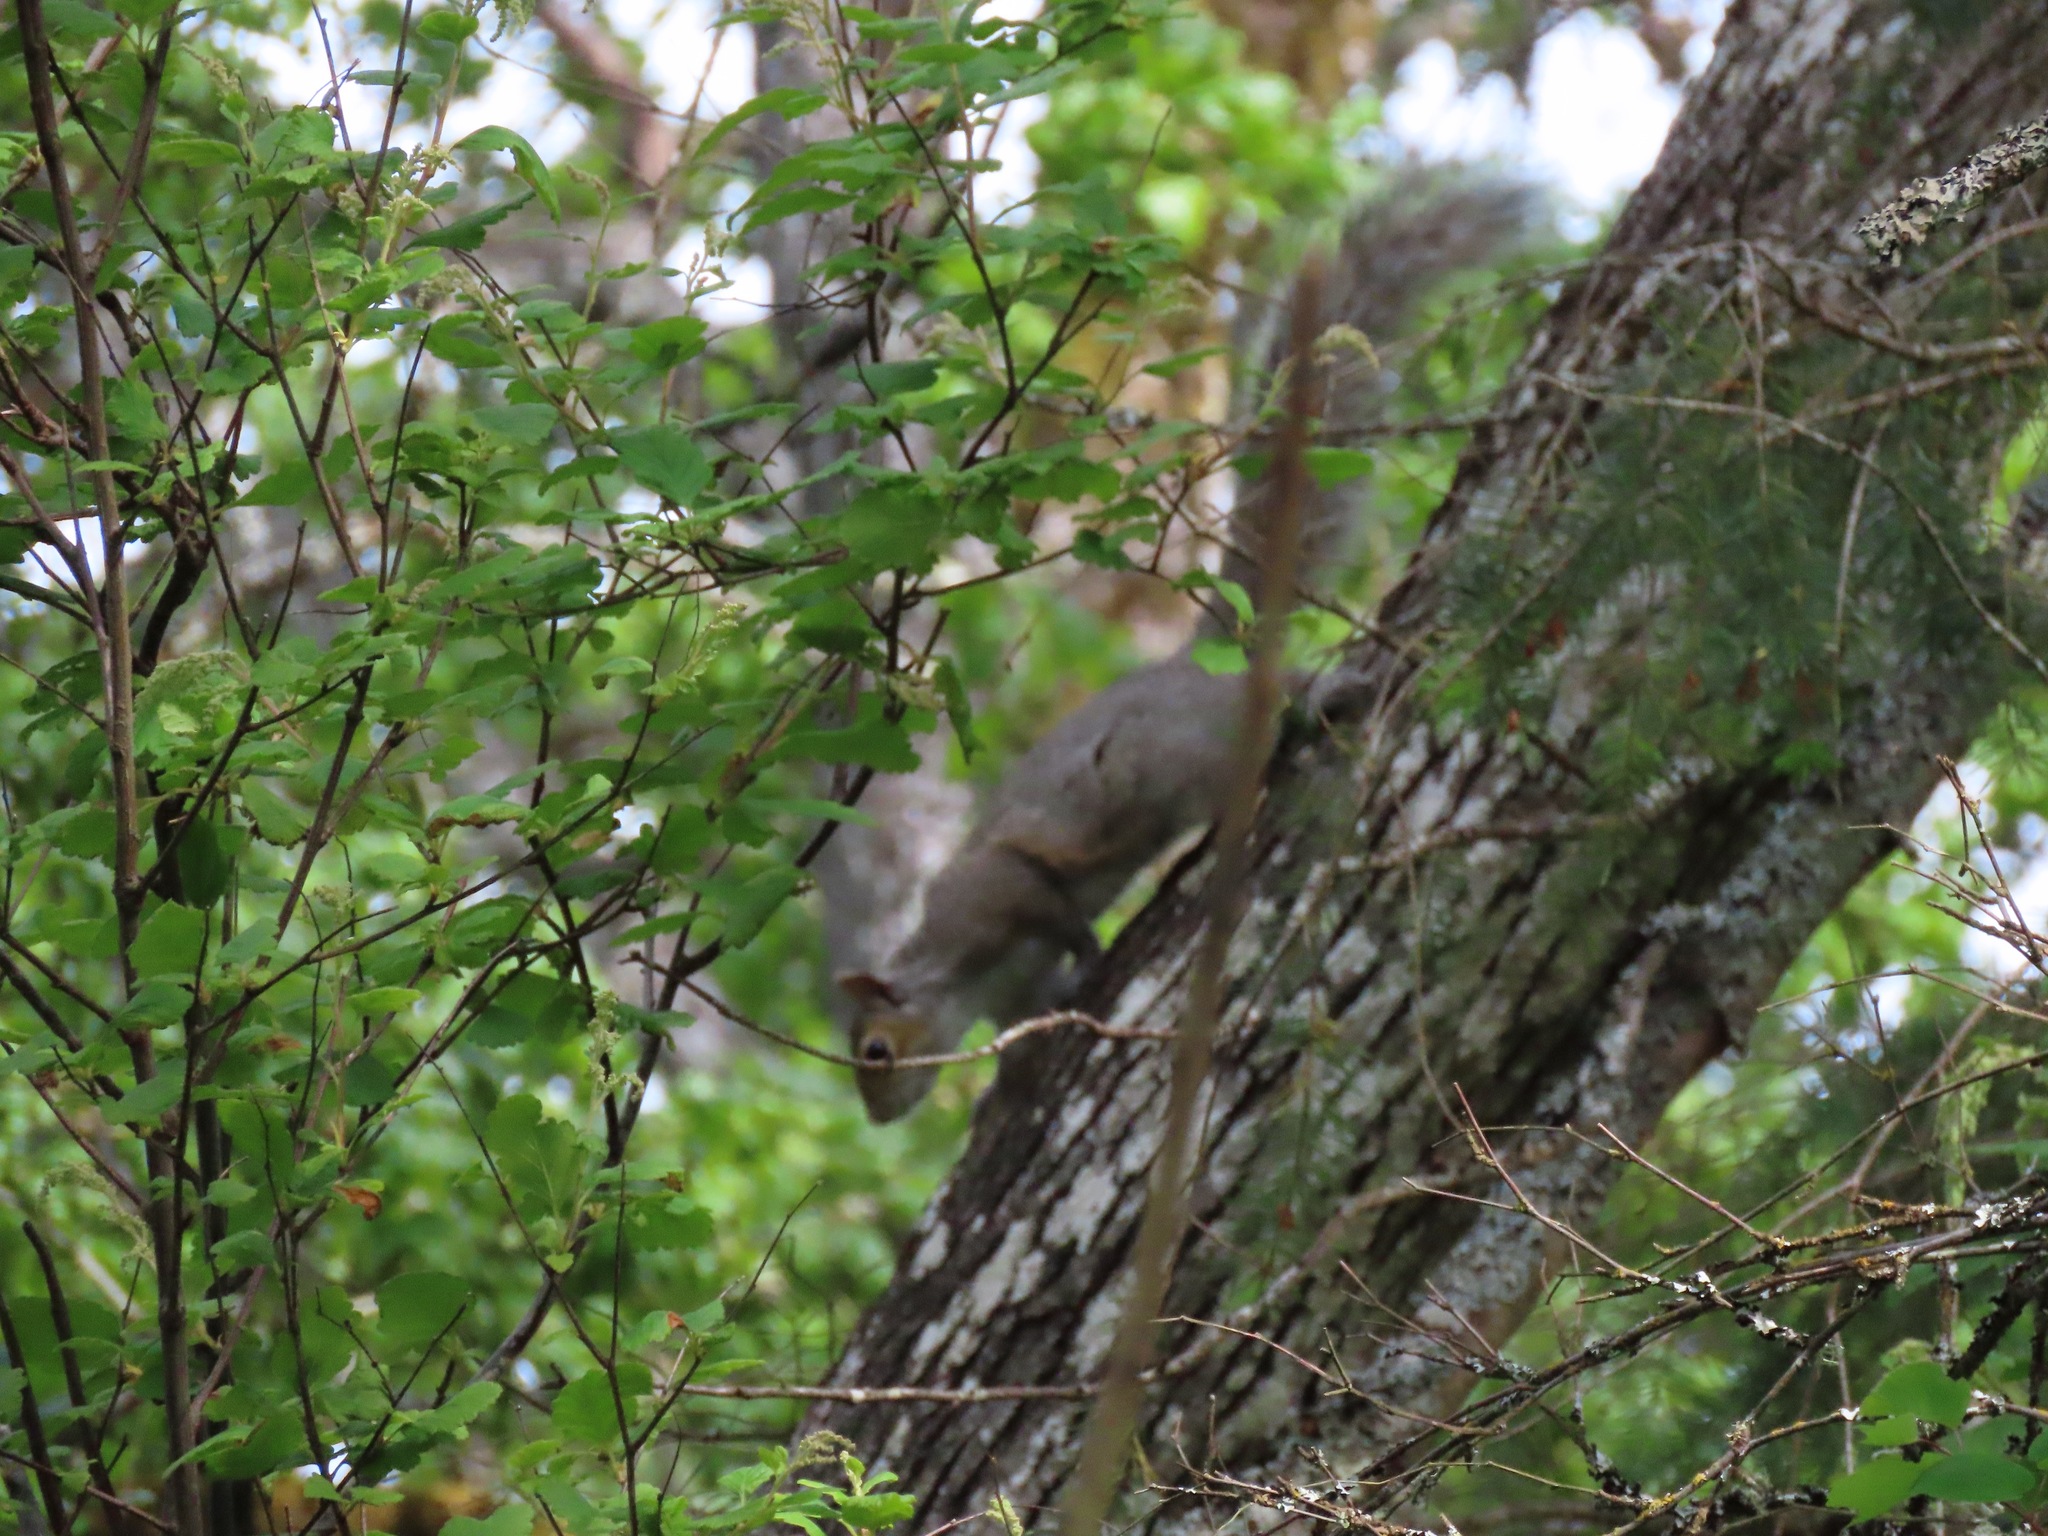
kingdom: Animalia
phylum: Chordata
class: Mammalia
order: Rodentia
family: Sciuridae
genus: Sciurus
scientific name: Sciurus carolinensis
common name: Eastern gray squirrel
